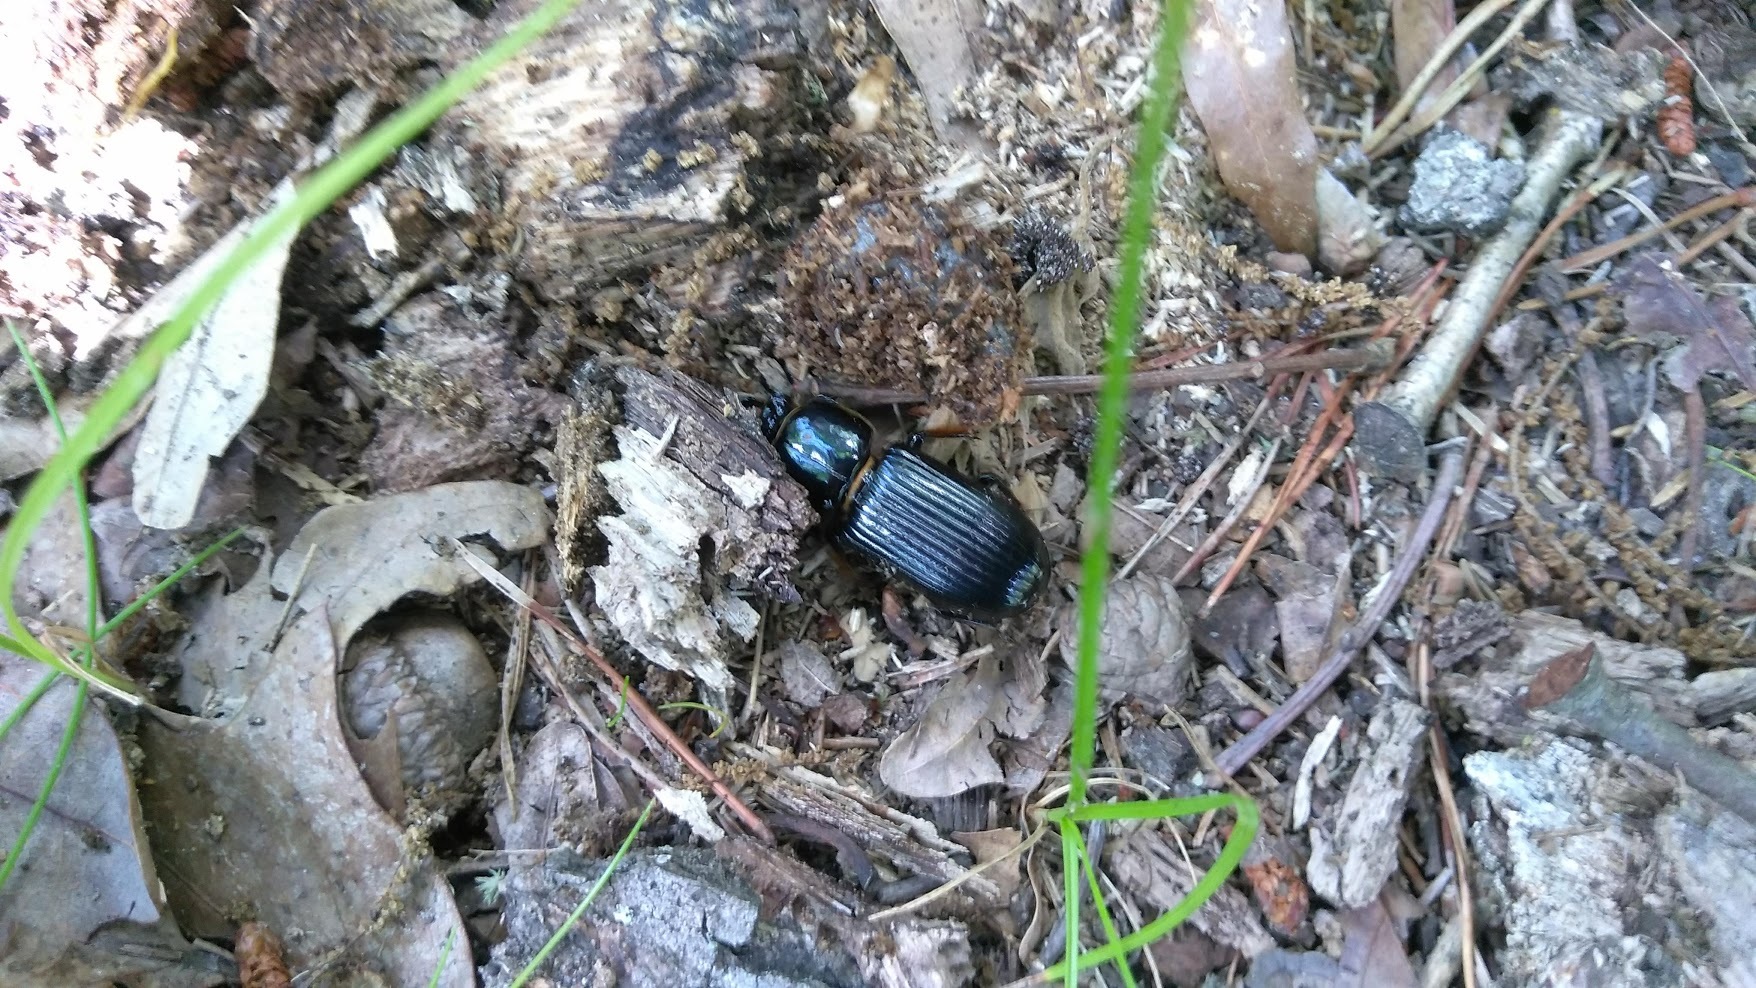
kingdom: Animalia
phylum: Arthropoda
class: Insecta
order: Coleoptera
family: Passalidae
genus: Odontotaenius
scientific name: Odontotaenius disjunctus
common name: Patent leather beetle
